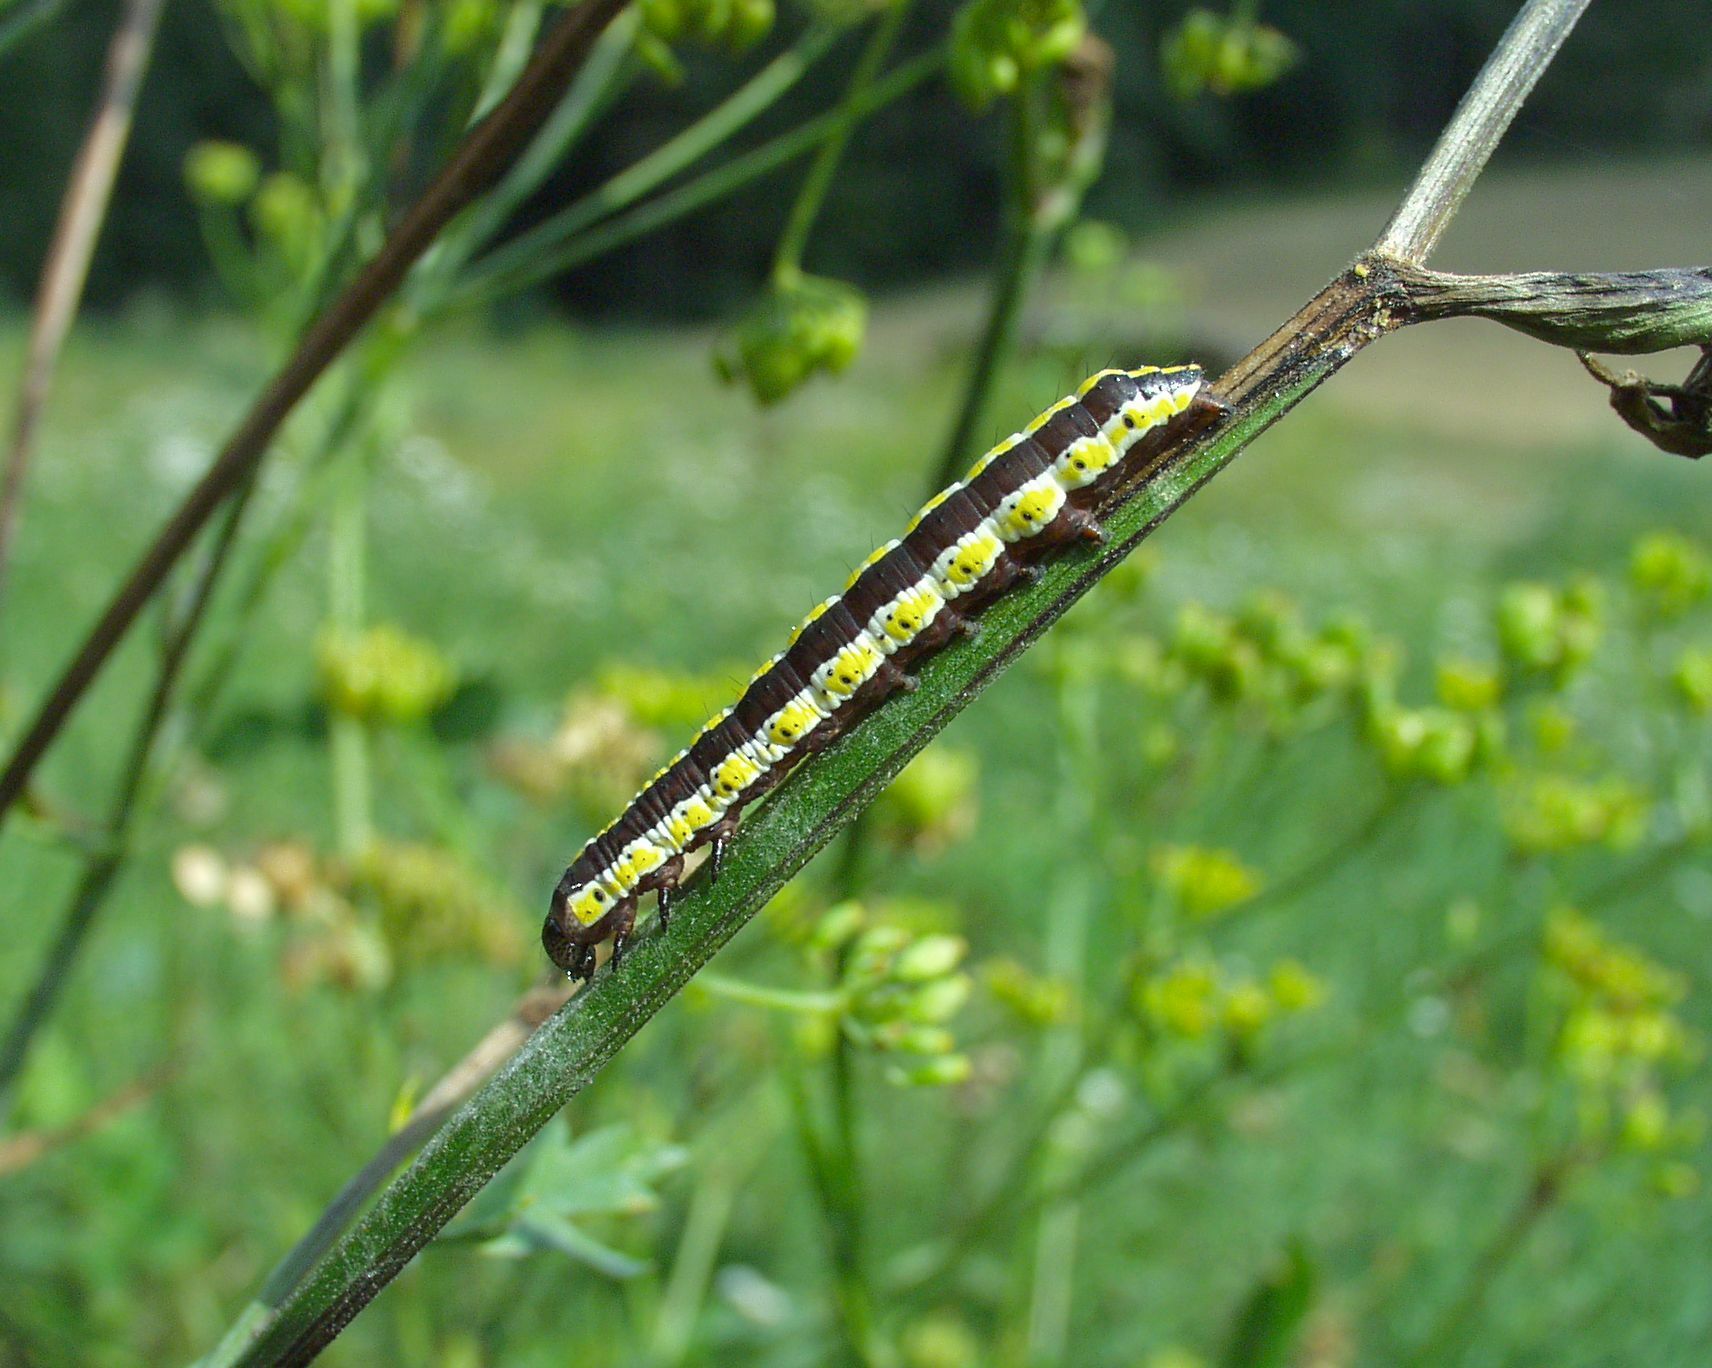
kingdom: Animalia
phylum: Arthropoda
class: Insecta
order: Lepidoptera
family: Noctuidae
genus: Cucullia
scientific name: Cucullia lucifuga
